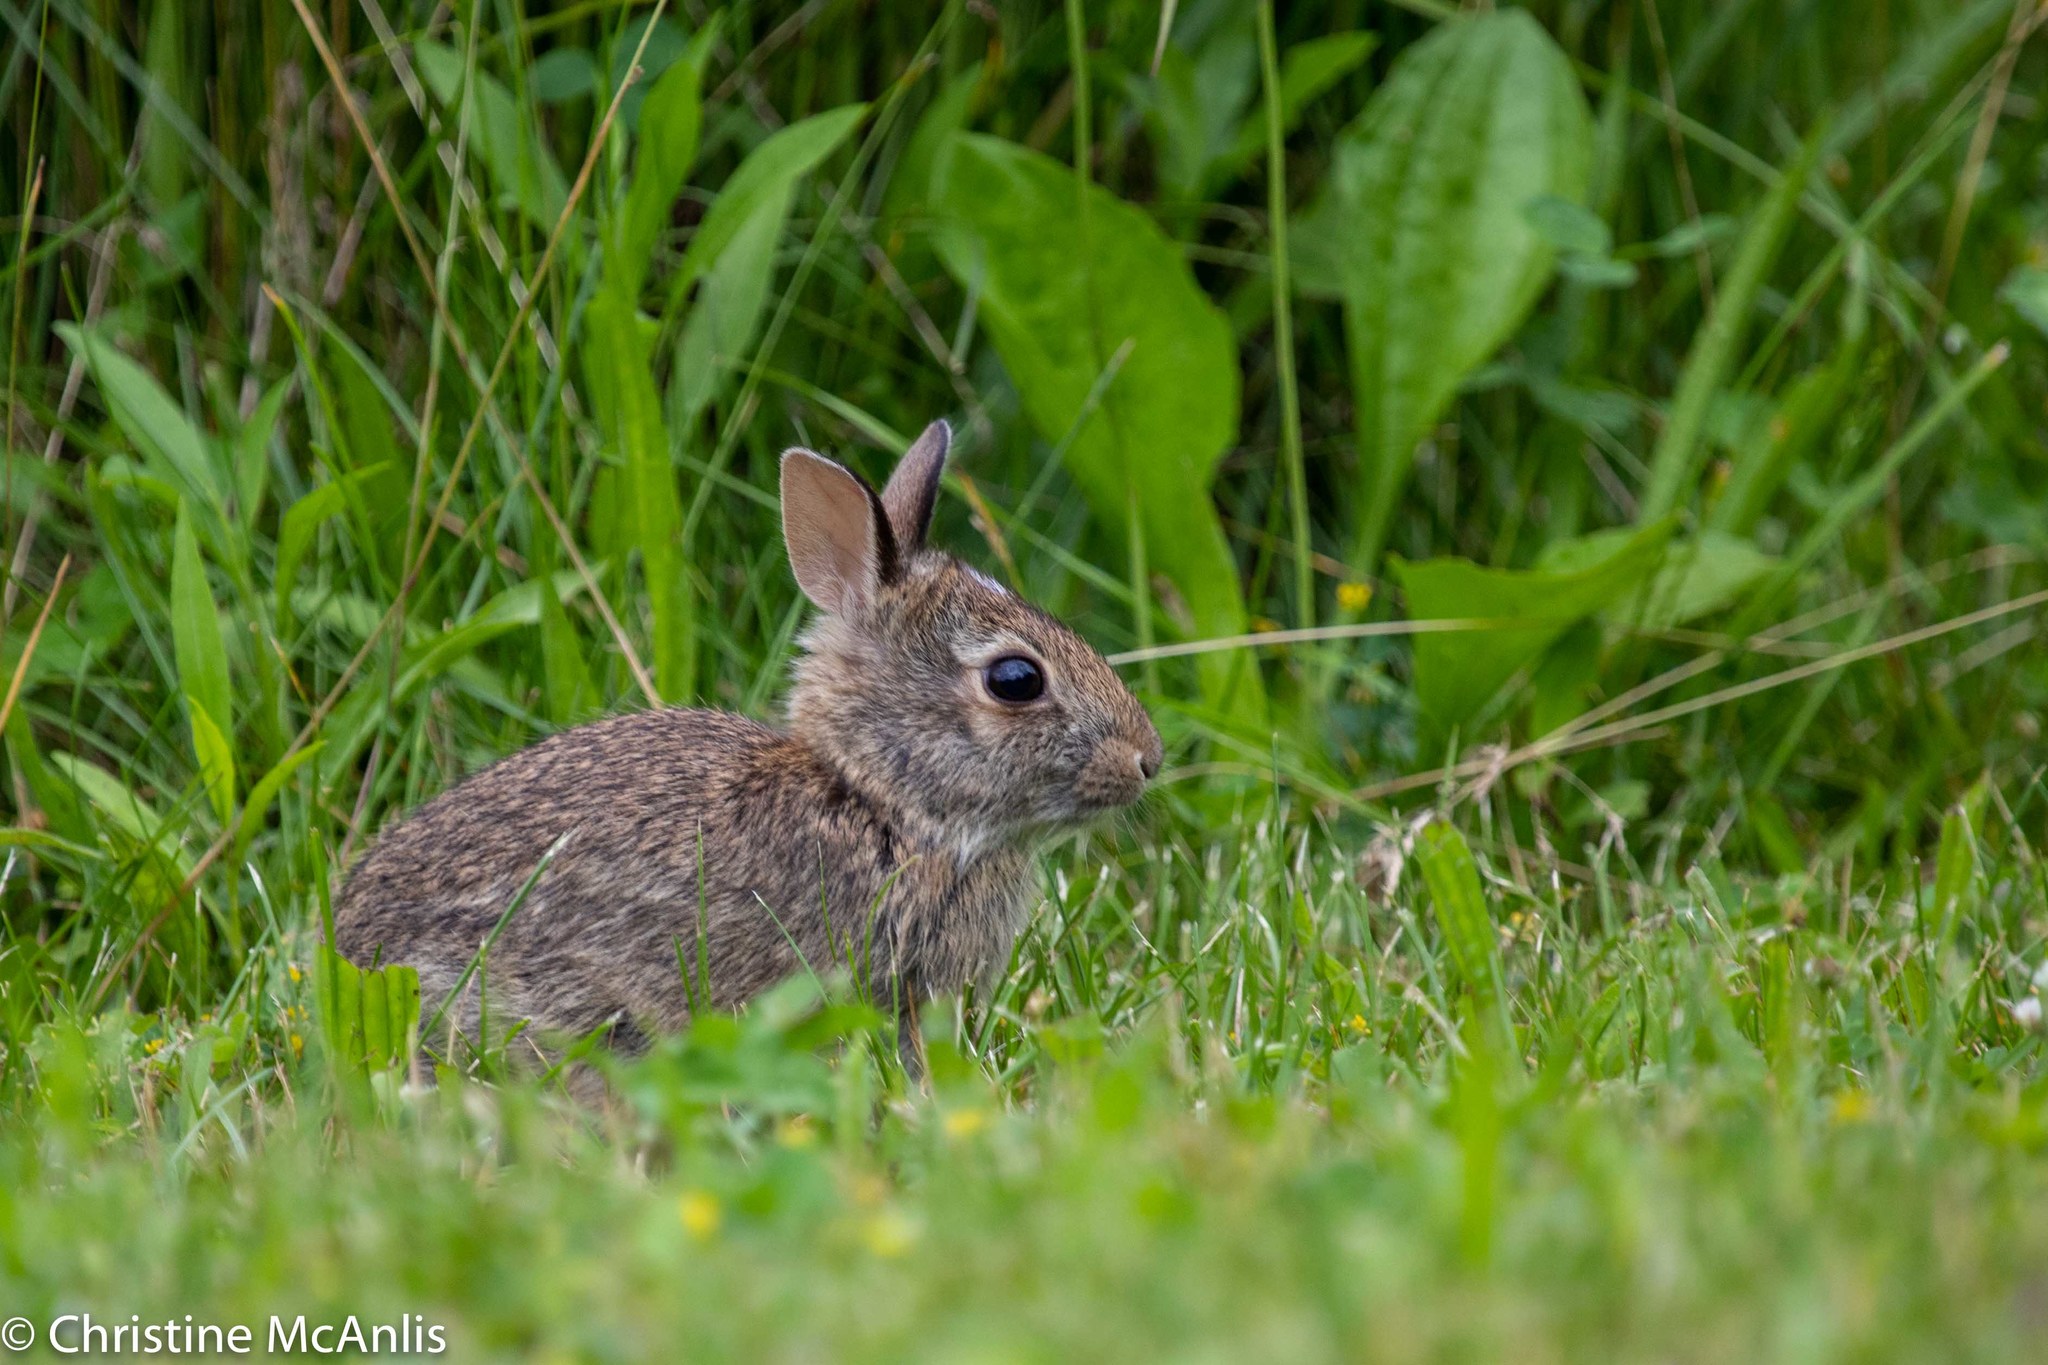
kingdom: Animalia
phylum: Chordata
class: Mammalia
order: Lagomorpha
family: Leporidae
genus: Sylvilagus
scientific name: Sylvilagus floridanus
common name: Eastern cottontail
